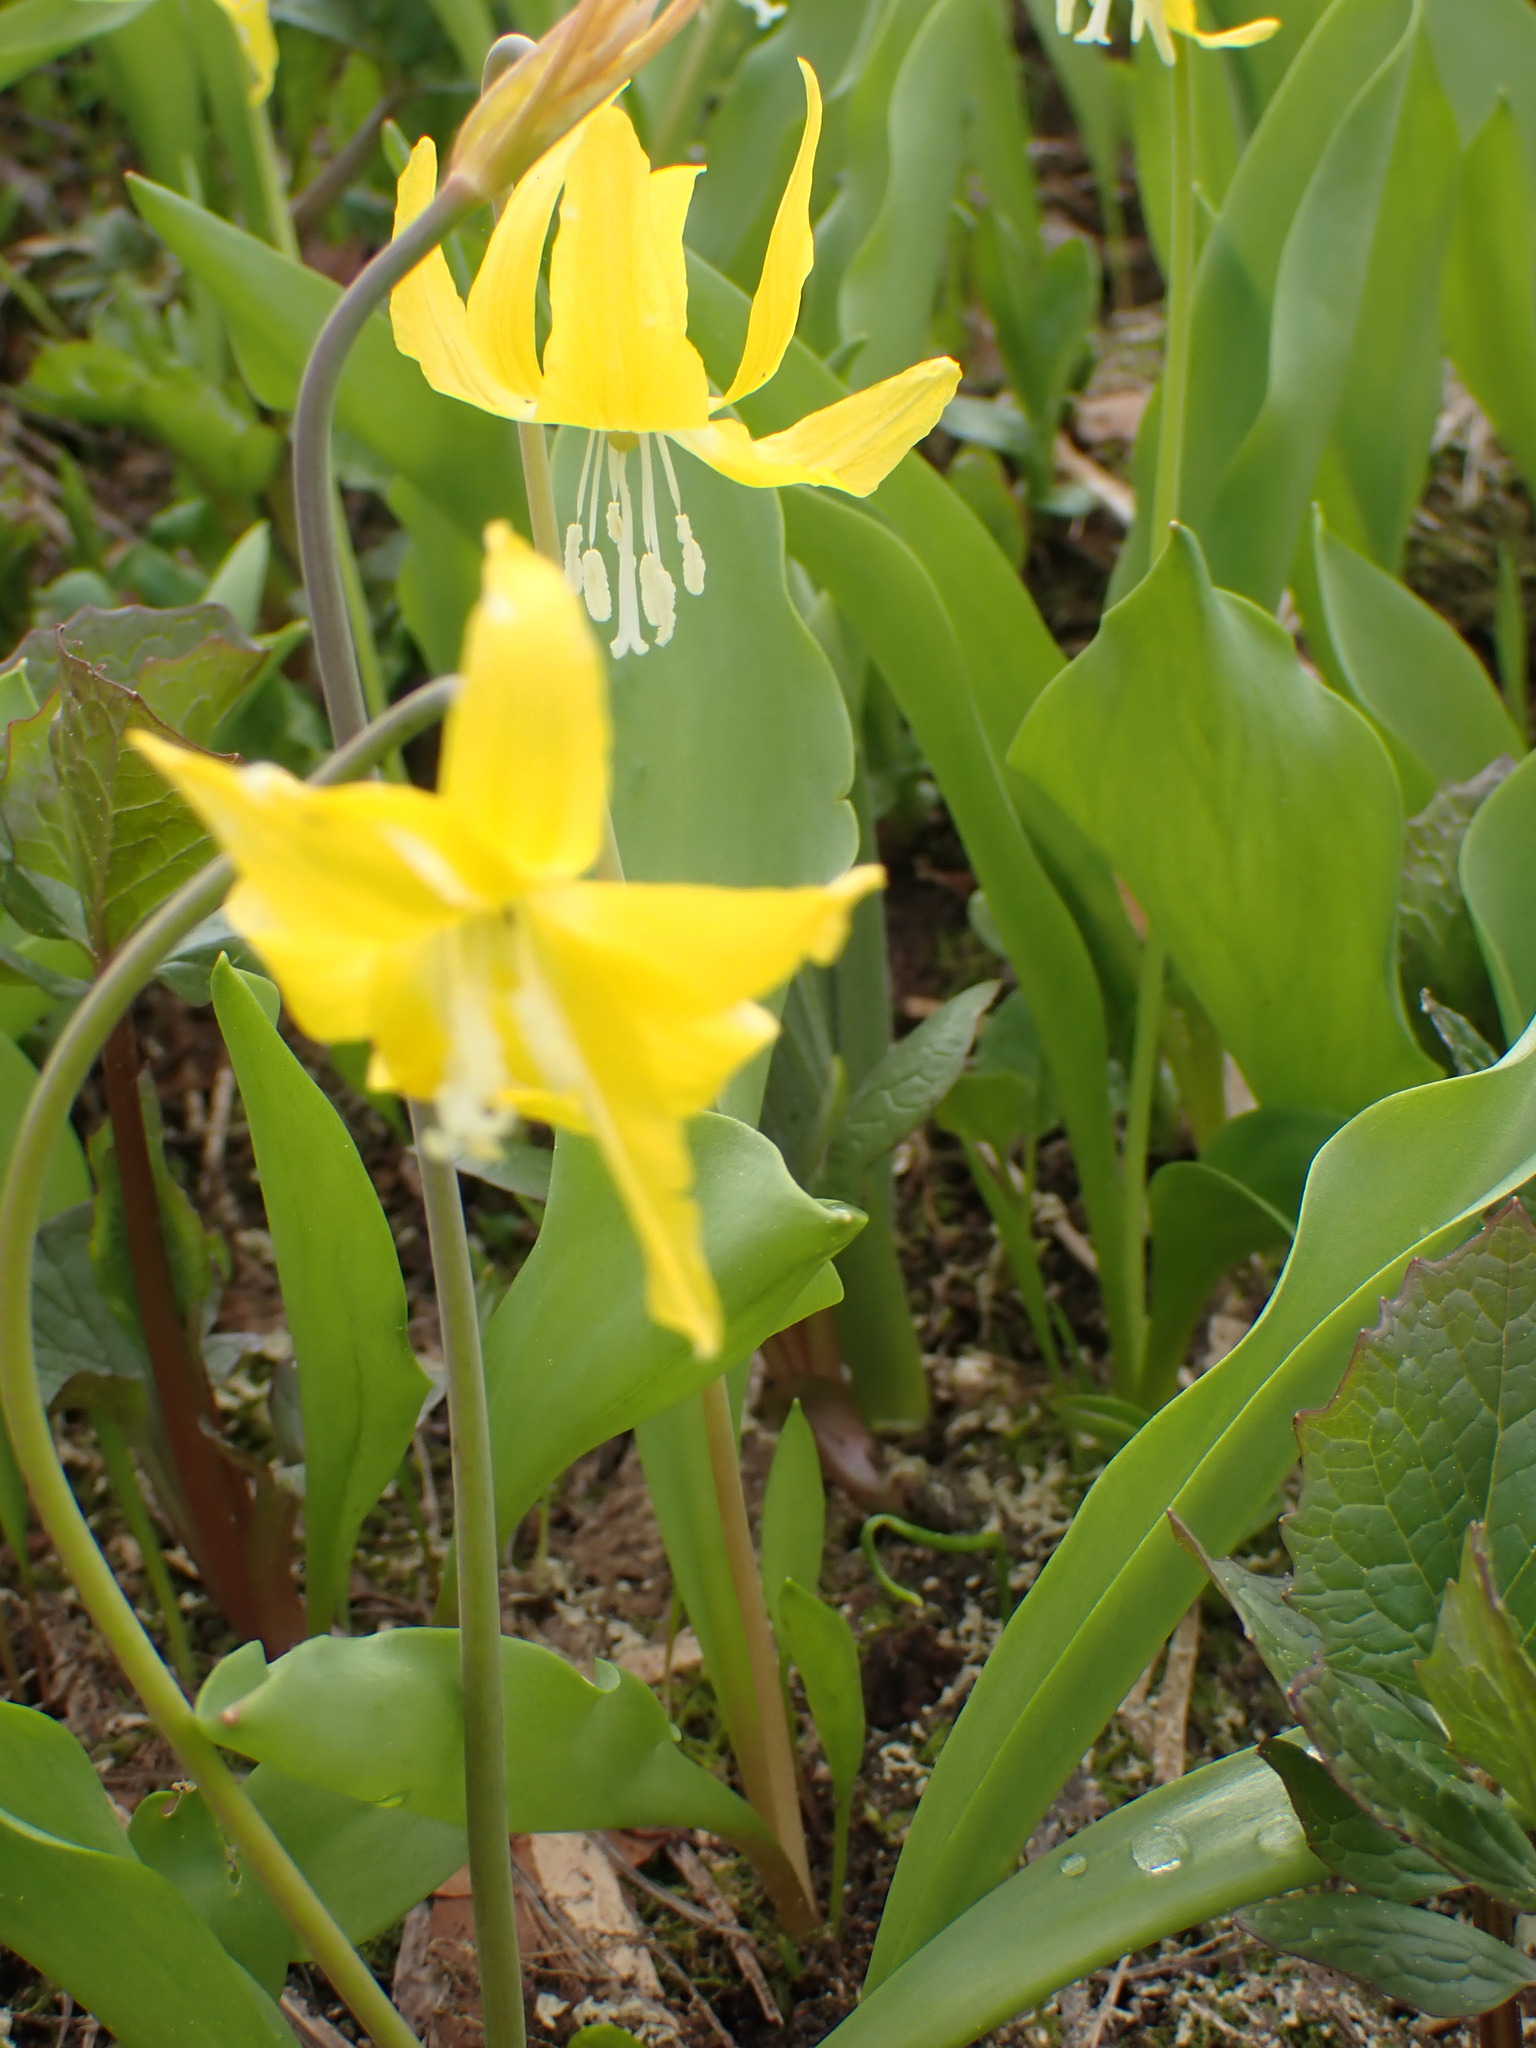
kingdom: Plantae
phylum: Tracheophyta
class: Liliopsida
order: Liliales
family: Liliaceae
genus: Erythronium
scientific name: Erythronium grandiflorum
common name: Avalanche-lily
